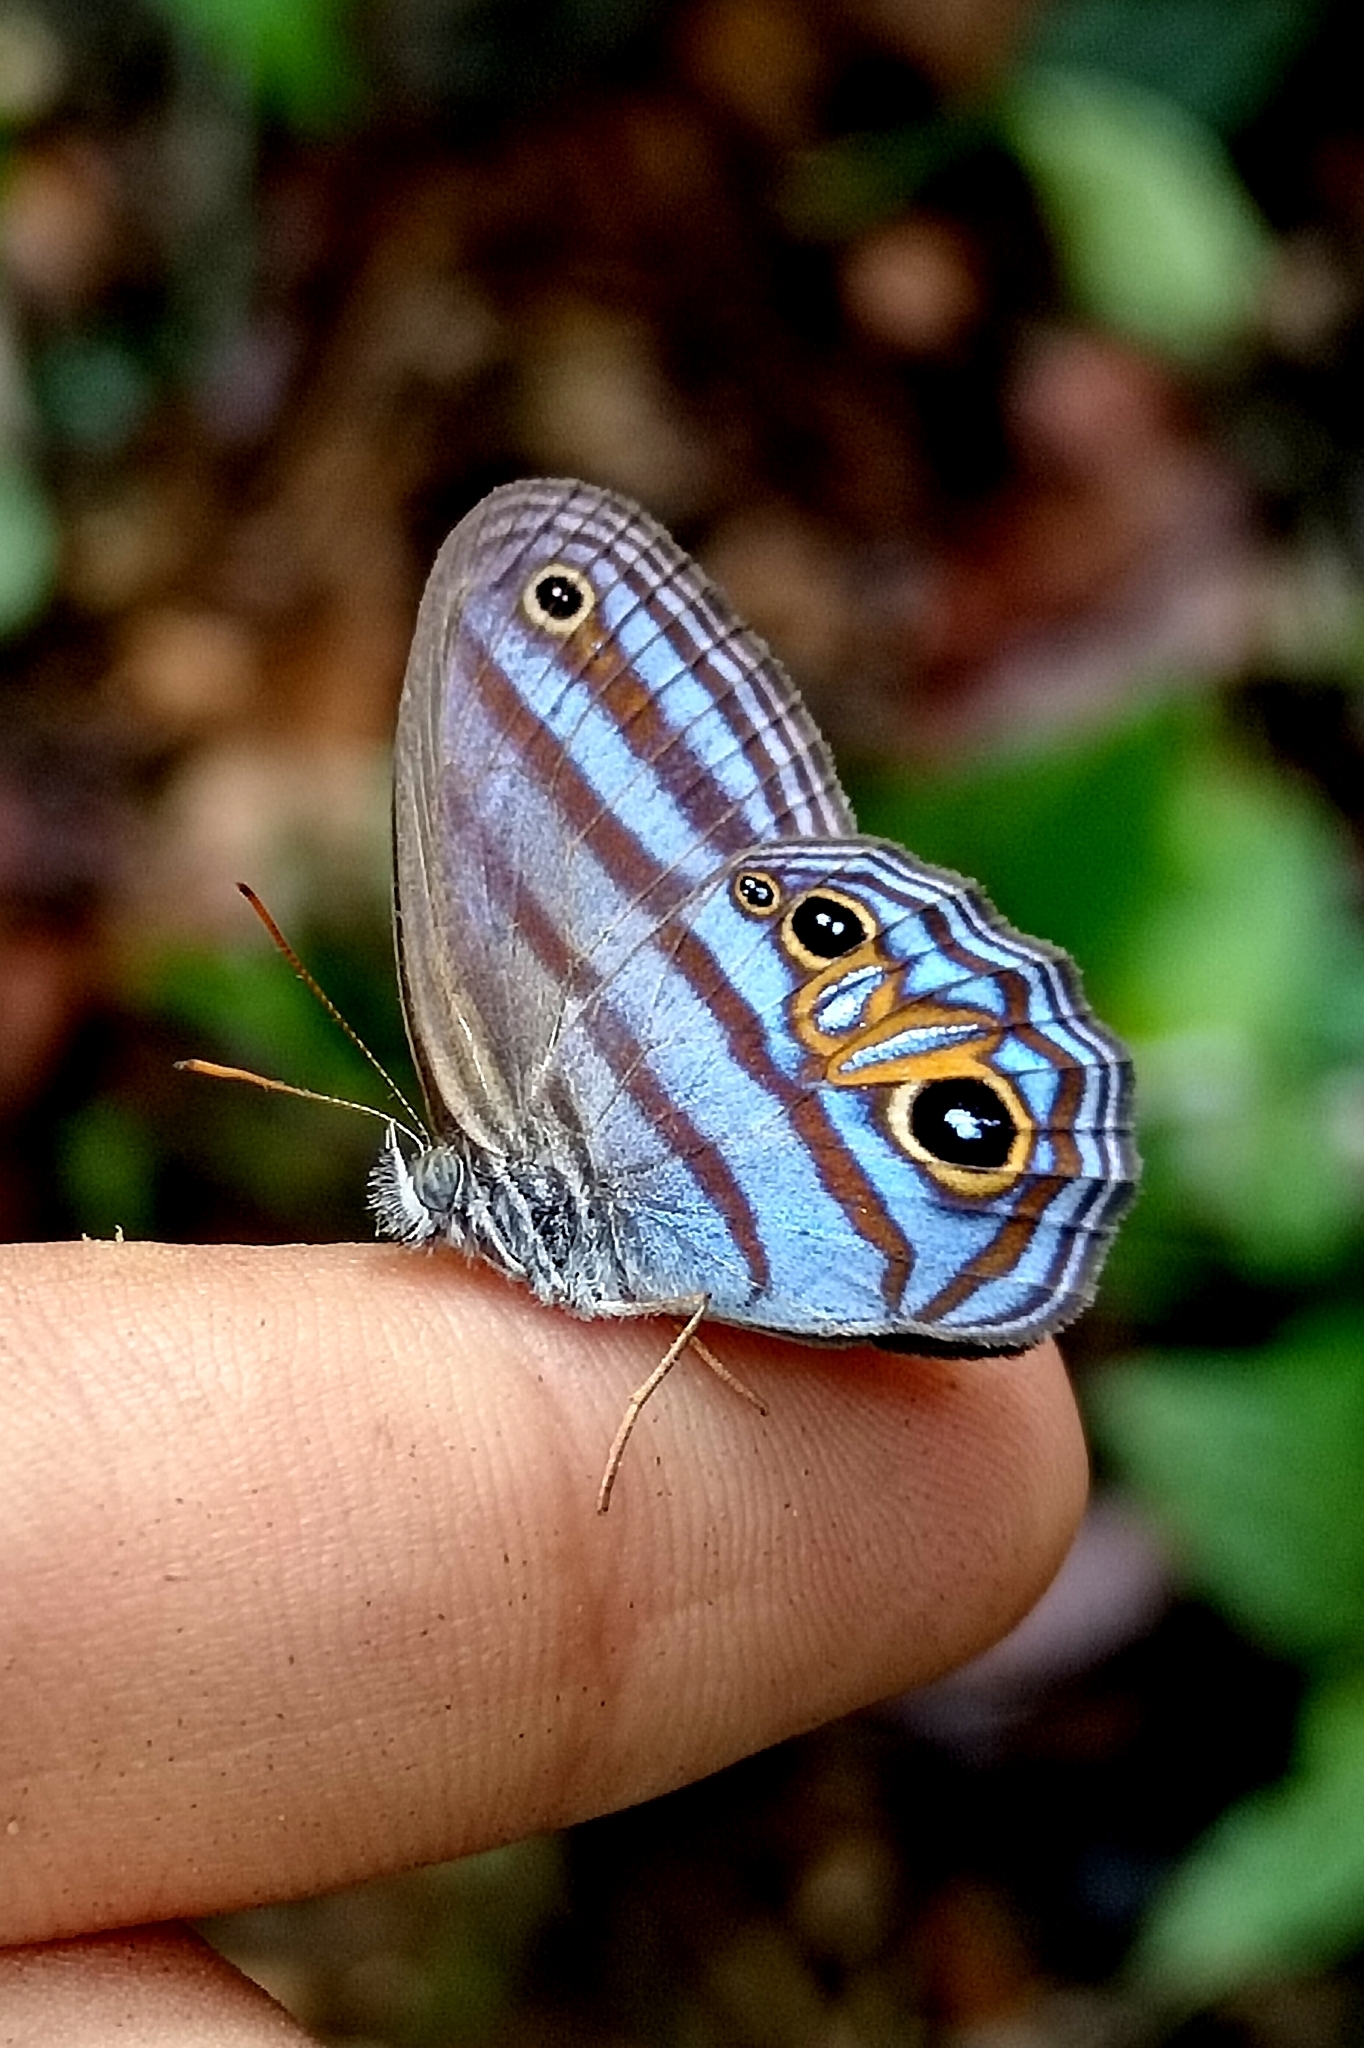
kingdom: Animalia
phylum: Arthropoda
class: Insecta
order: Lepidoptera
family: Nymphalidae
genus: Chloreuptychia
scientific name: Chloreuptychia chloris
